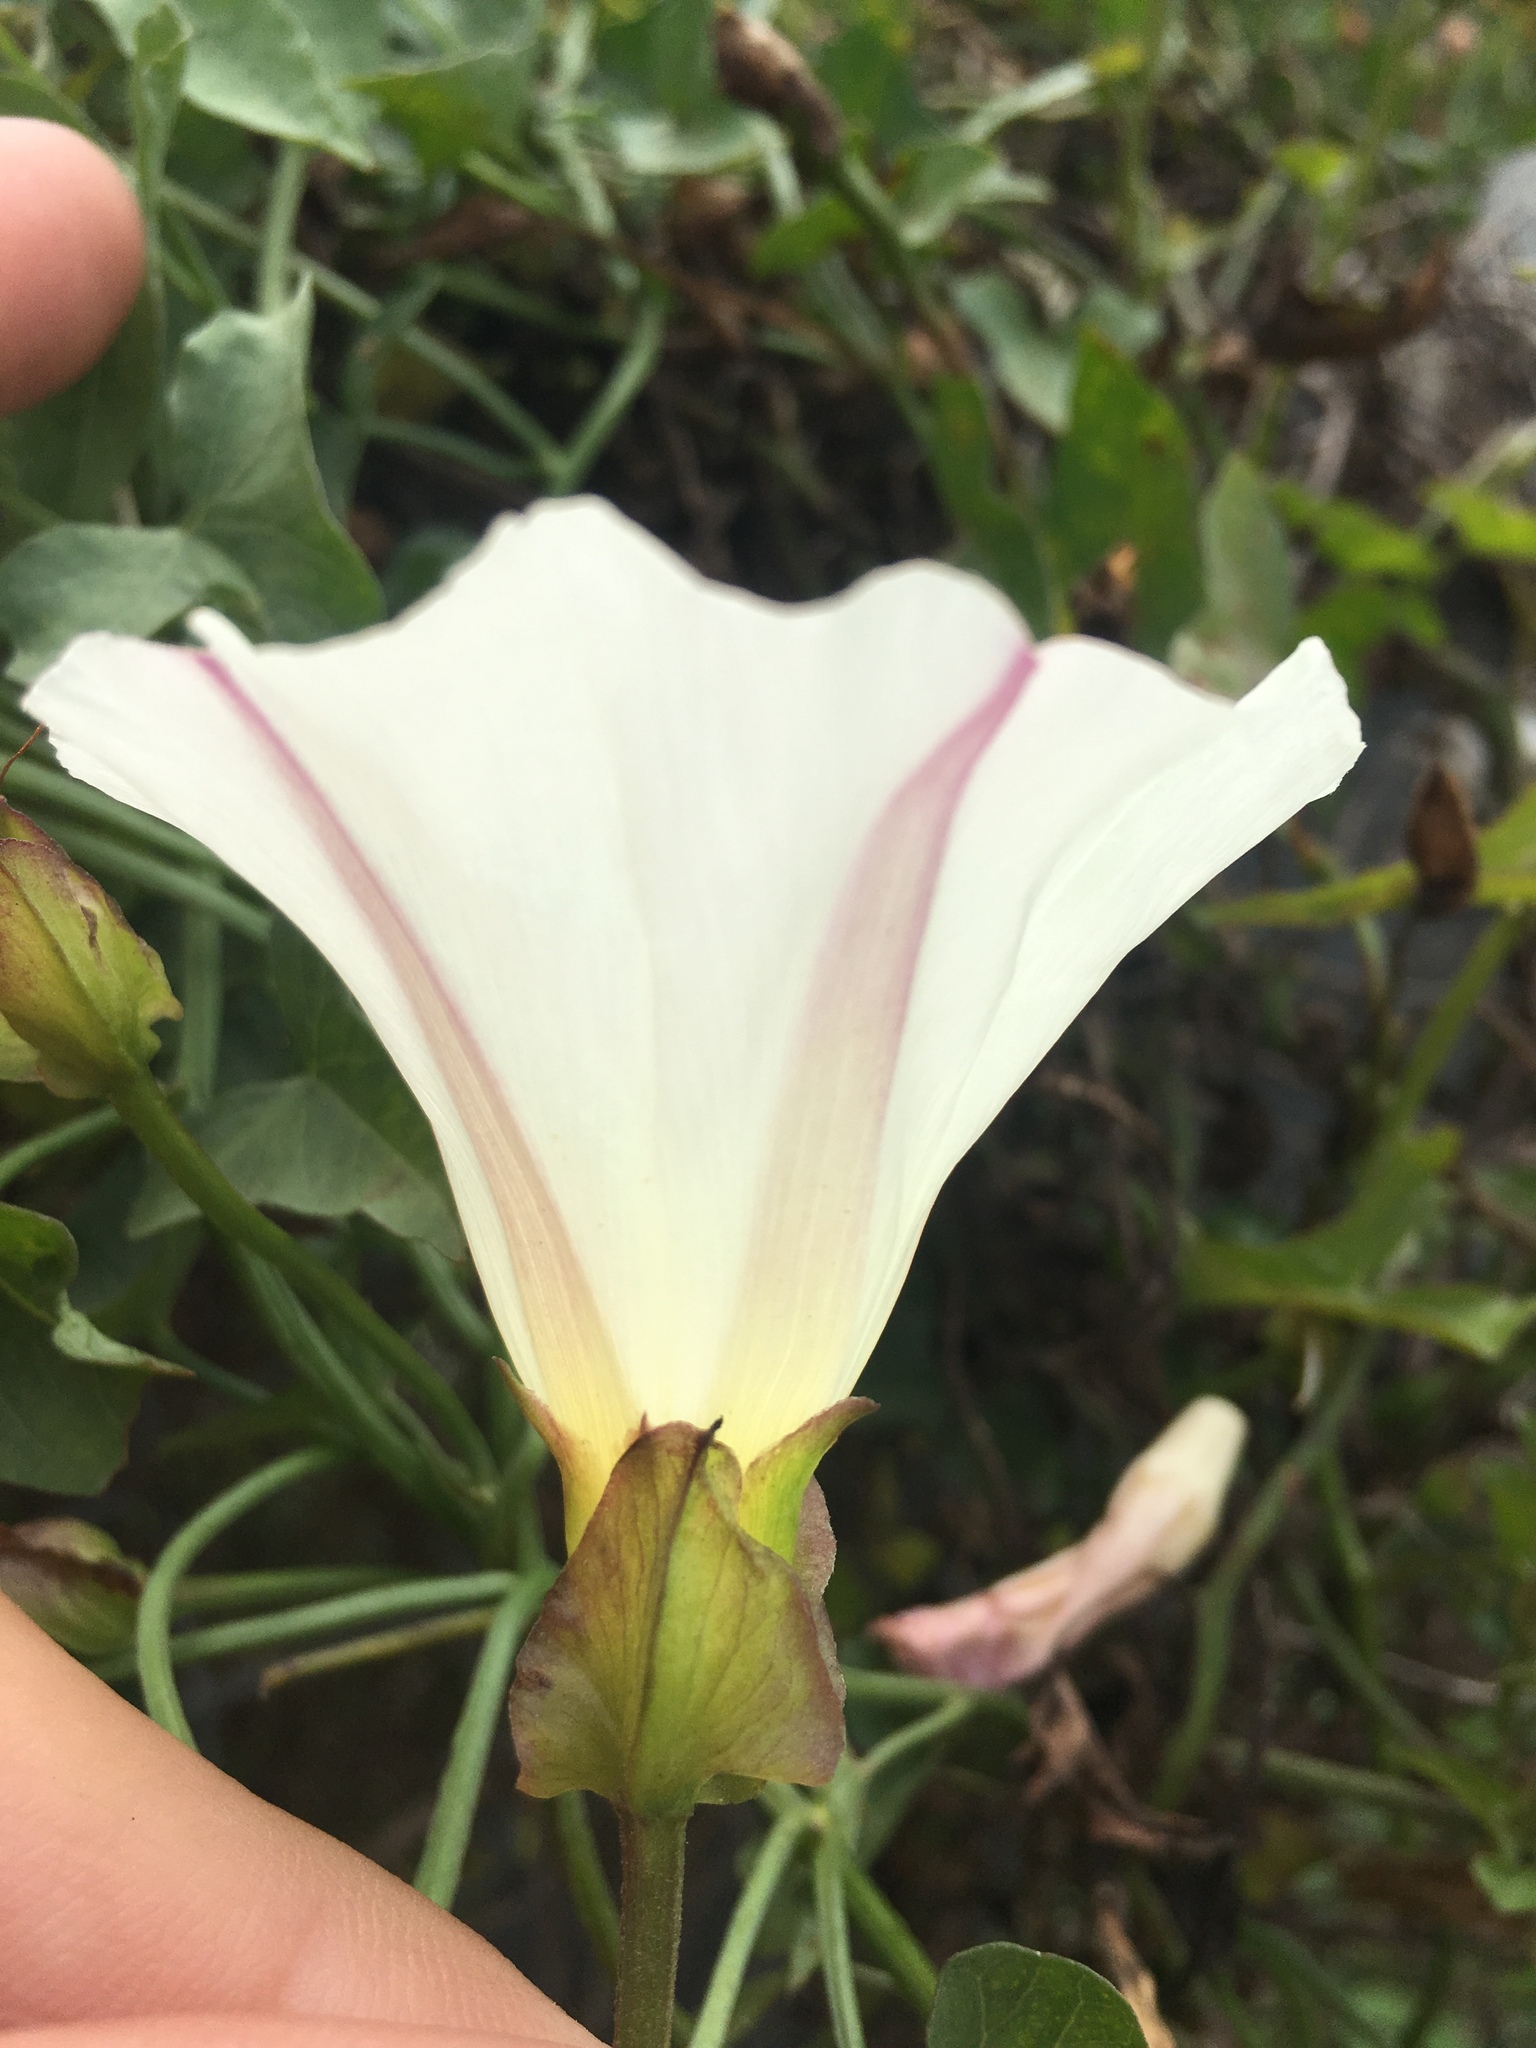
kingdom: Plantae
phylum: Tracheophyta
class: Magnoliopsida
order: Solanales
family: Convolvulaceae
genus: Calystegia
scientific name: Calystegia macrostegia
